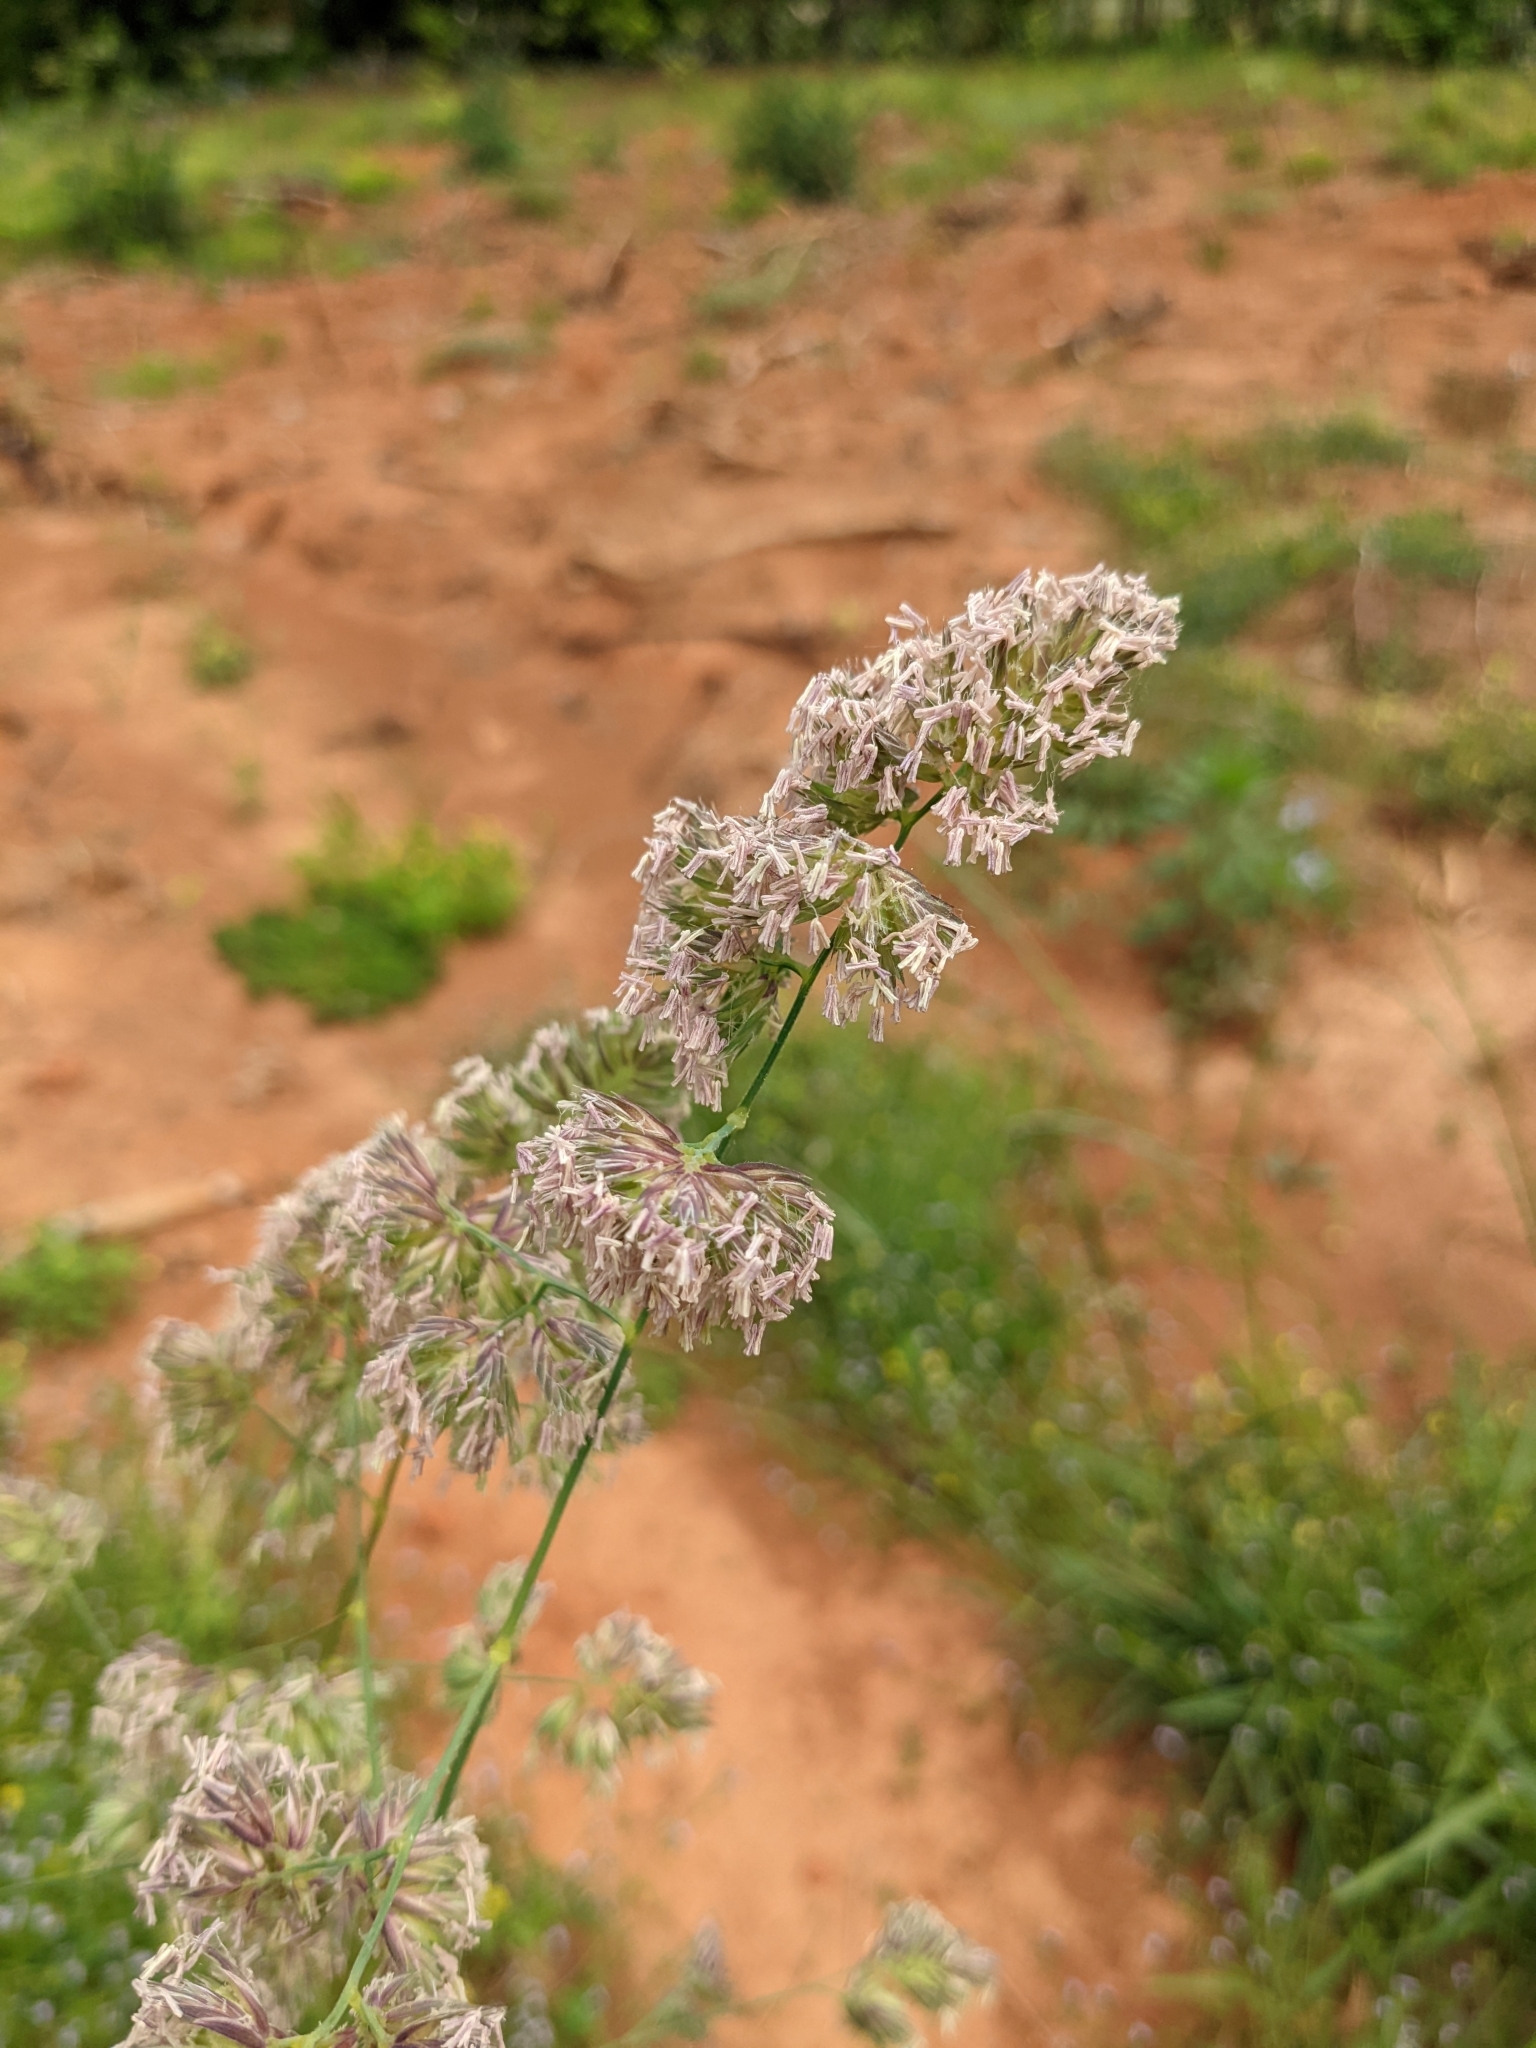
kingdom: Plantae
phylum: Tracheophyta
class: Liliopsida
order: Poales
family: Poaceae
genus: Dactylis
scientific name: Dactylis glomerata
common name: Orchardgrass
